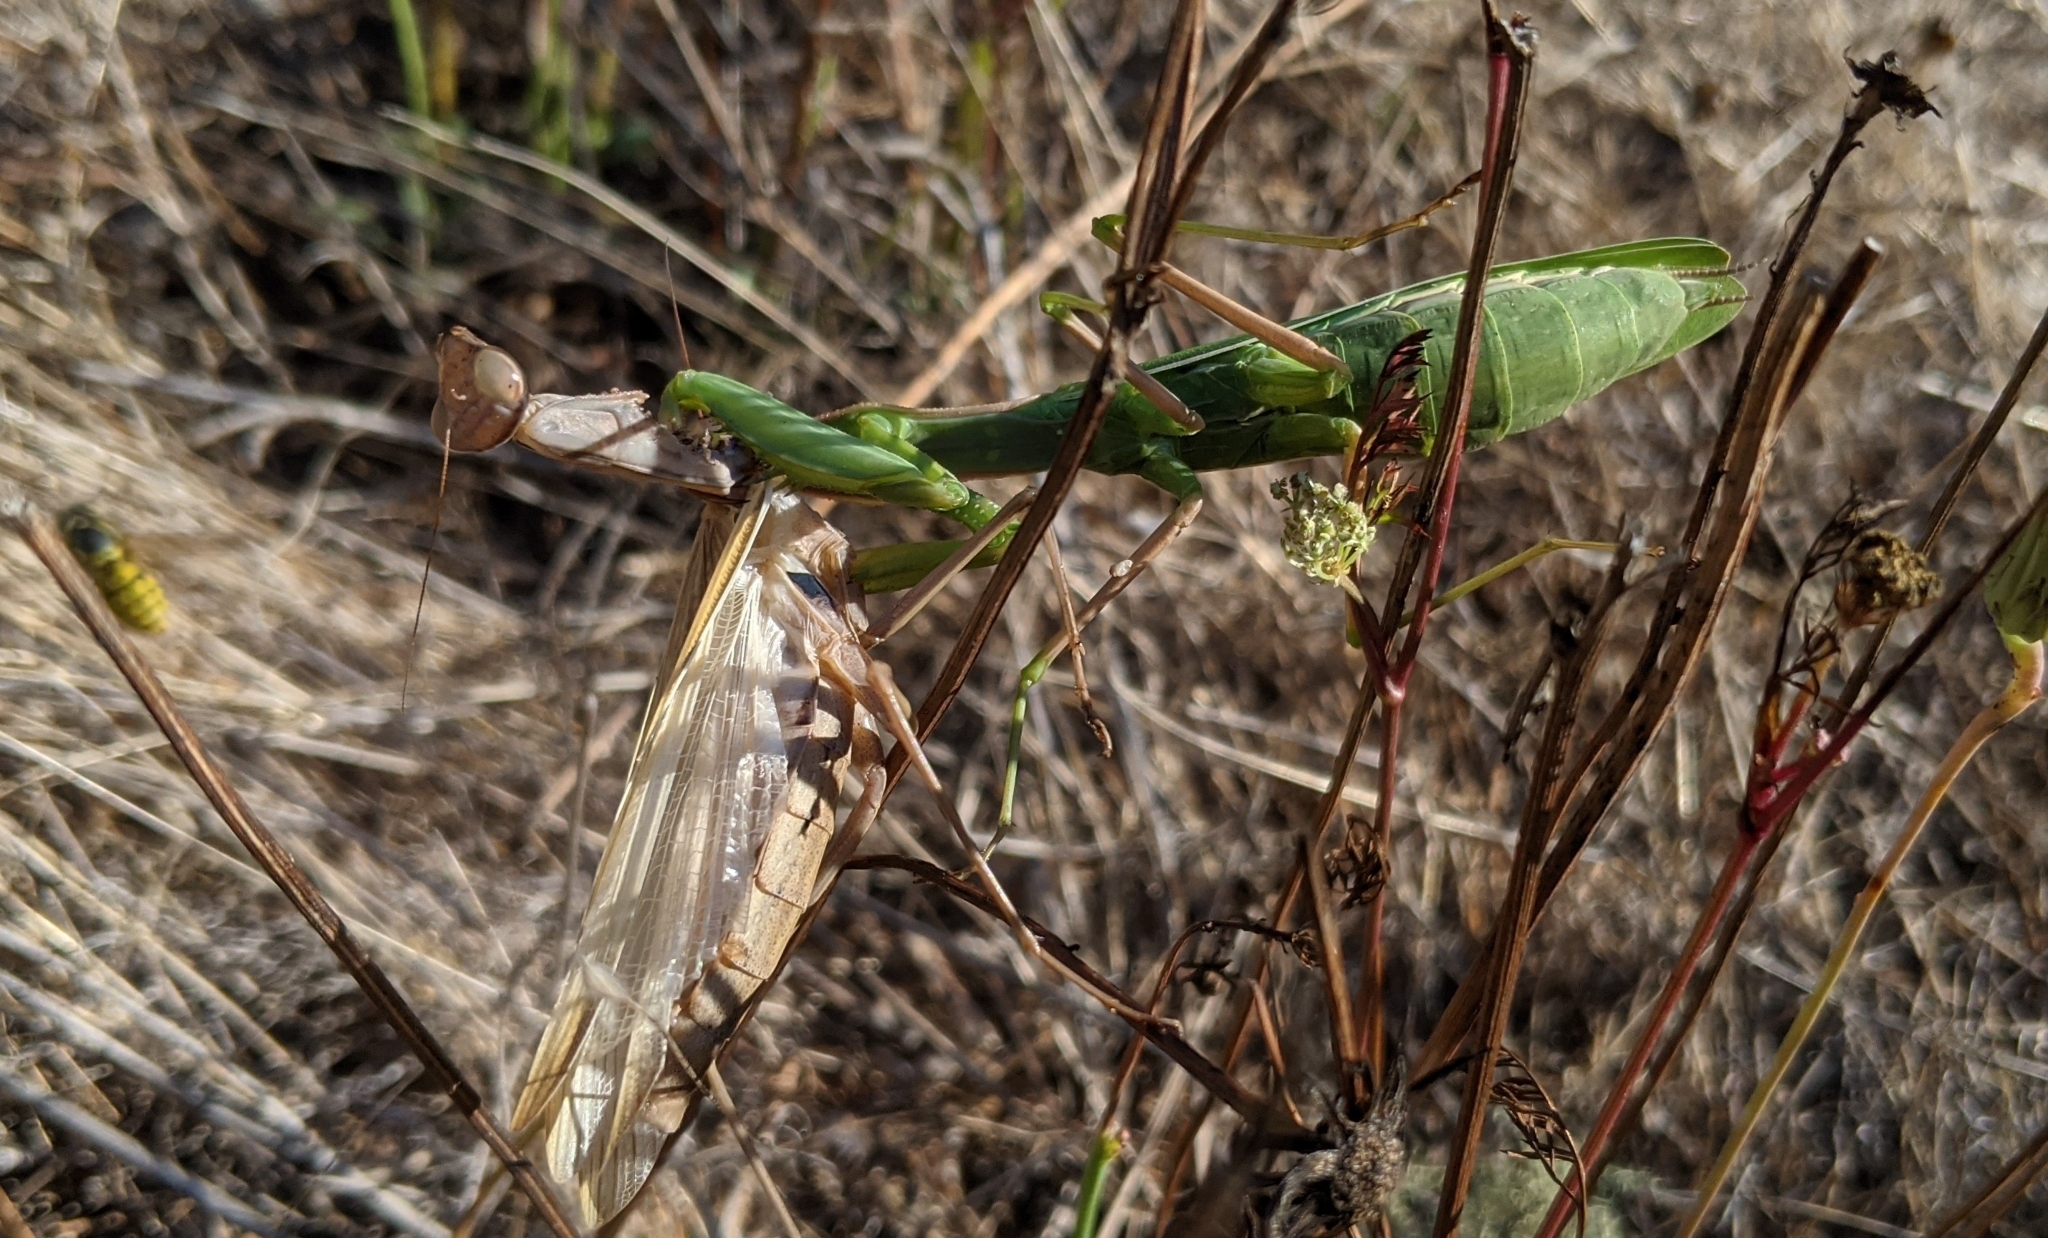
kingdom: Animalia
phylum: Arthropoda
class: Insecta
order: Mantodea
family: Mantidae
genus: Mantis
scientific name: Mantis religiosa
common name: Praying mantis
